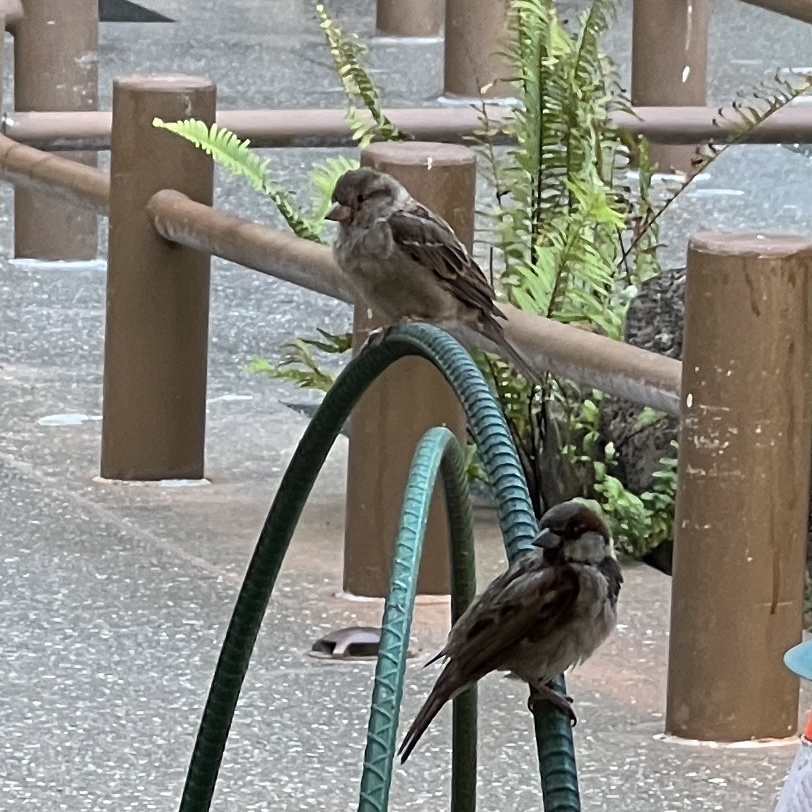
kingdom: Animalia
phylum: Chordata
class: Aves
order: Passeriformes
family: Passeridae
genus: Passer
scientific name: Passer domesticus
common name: House sparrow
